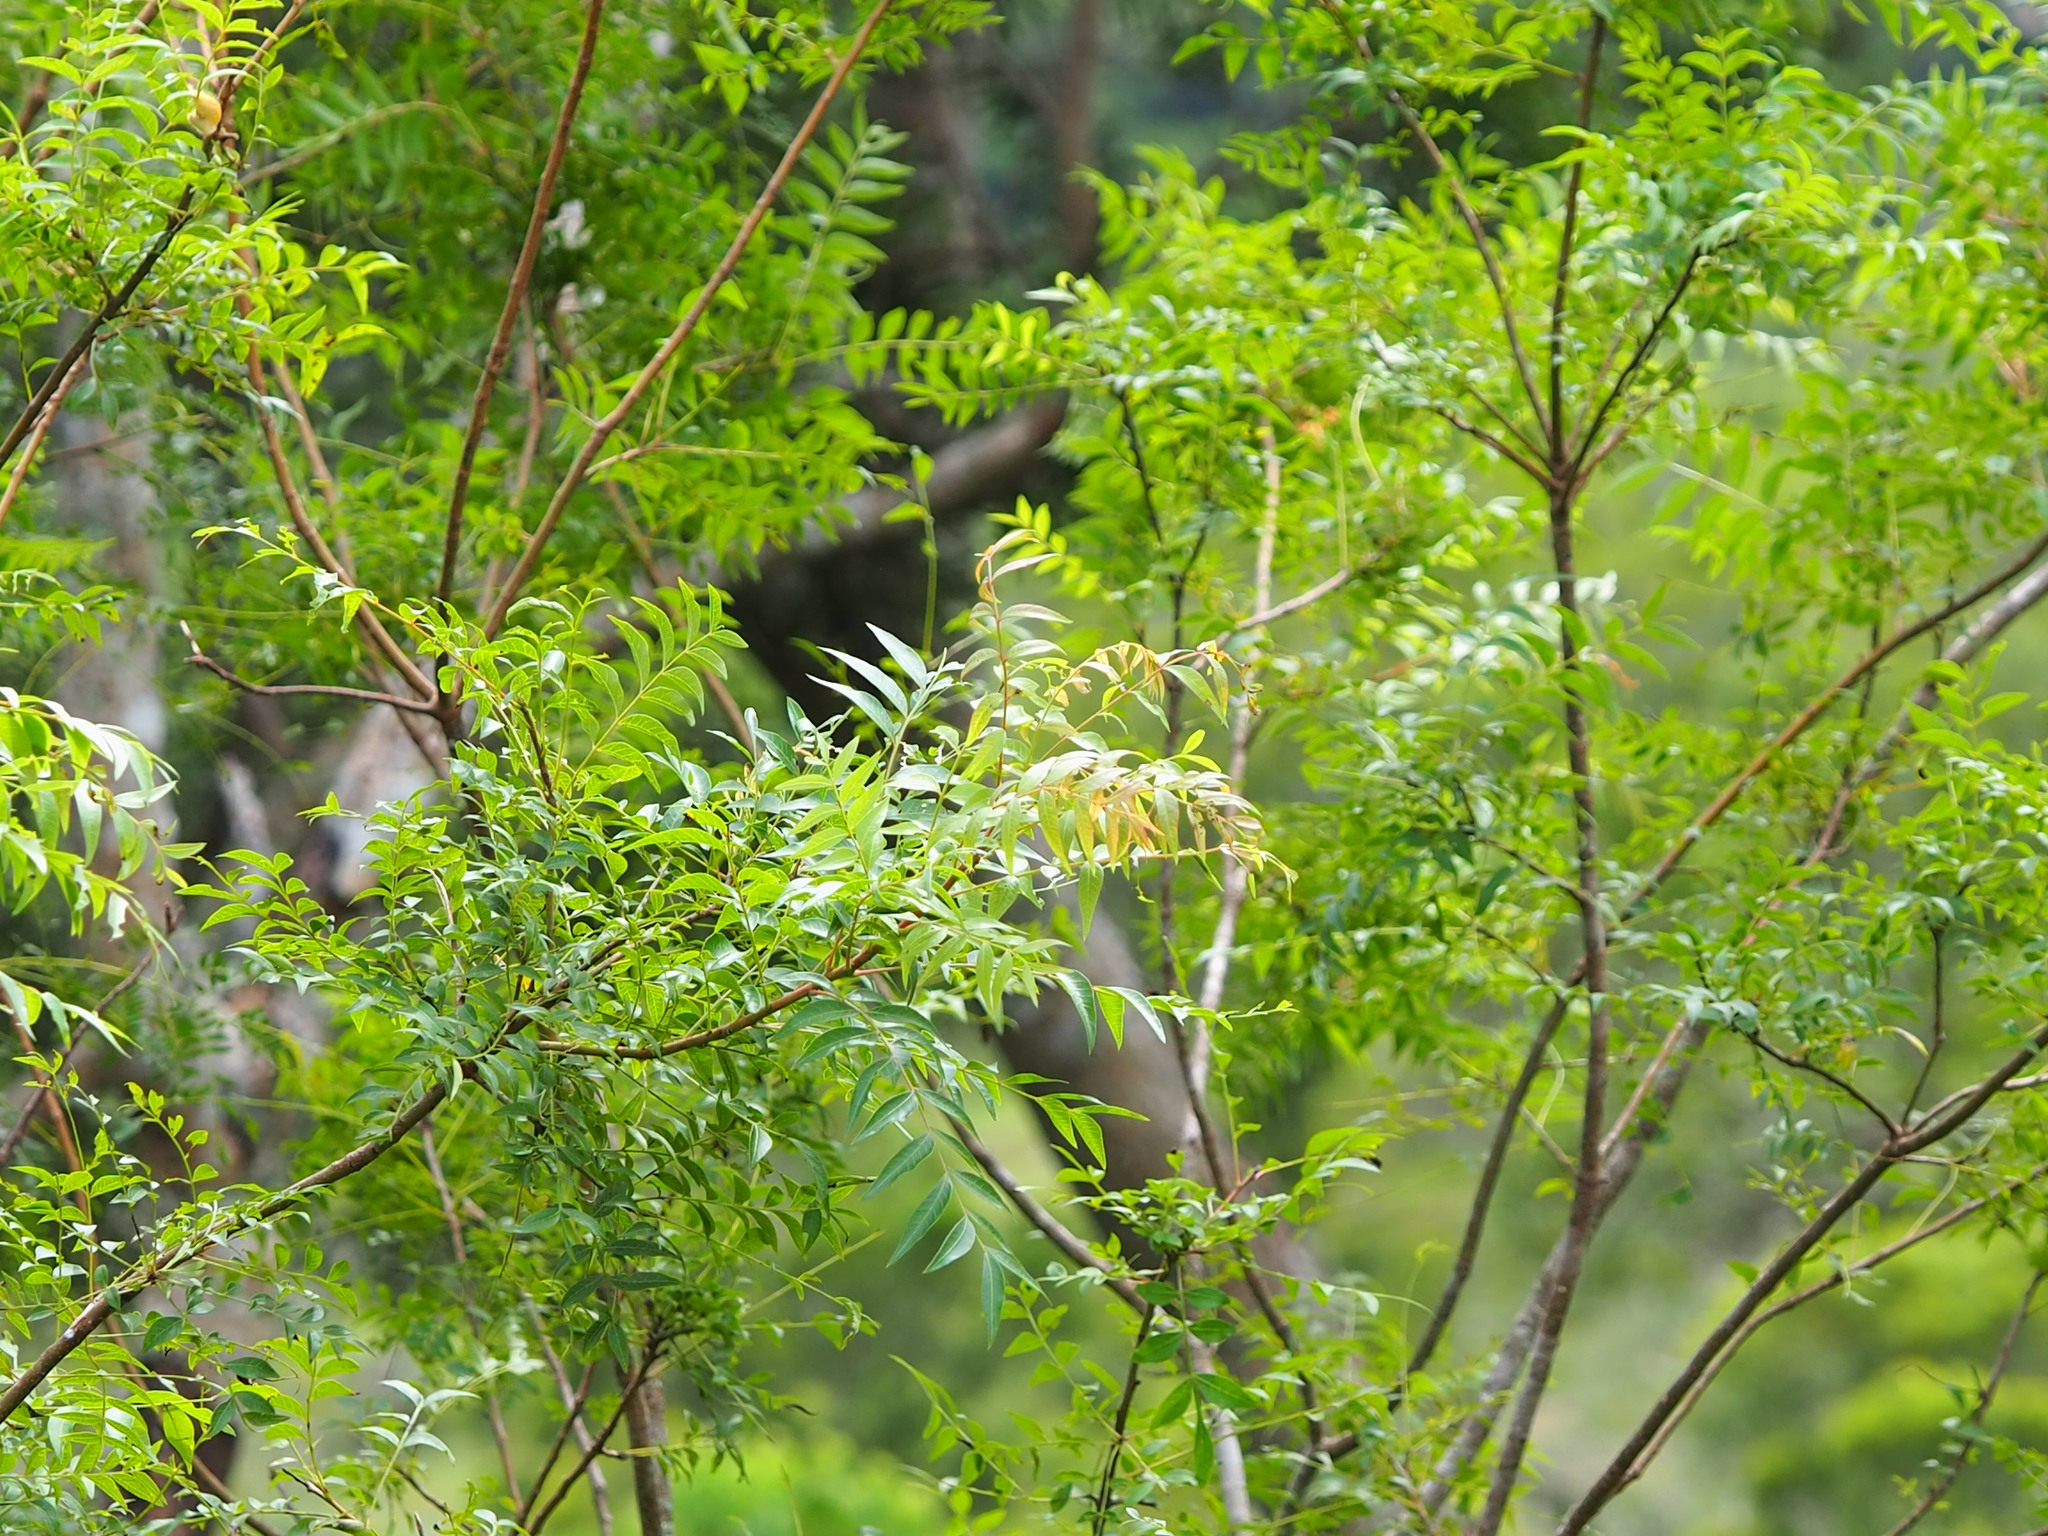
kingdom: Plantae
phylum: Tracheophyta
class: Magnoliopsida
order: Sapindales
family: Anacardiaceae
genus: Pistacia
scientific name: Pistacia chinensis
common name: Chinese pistache
